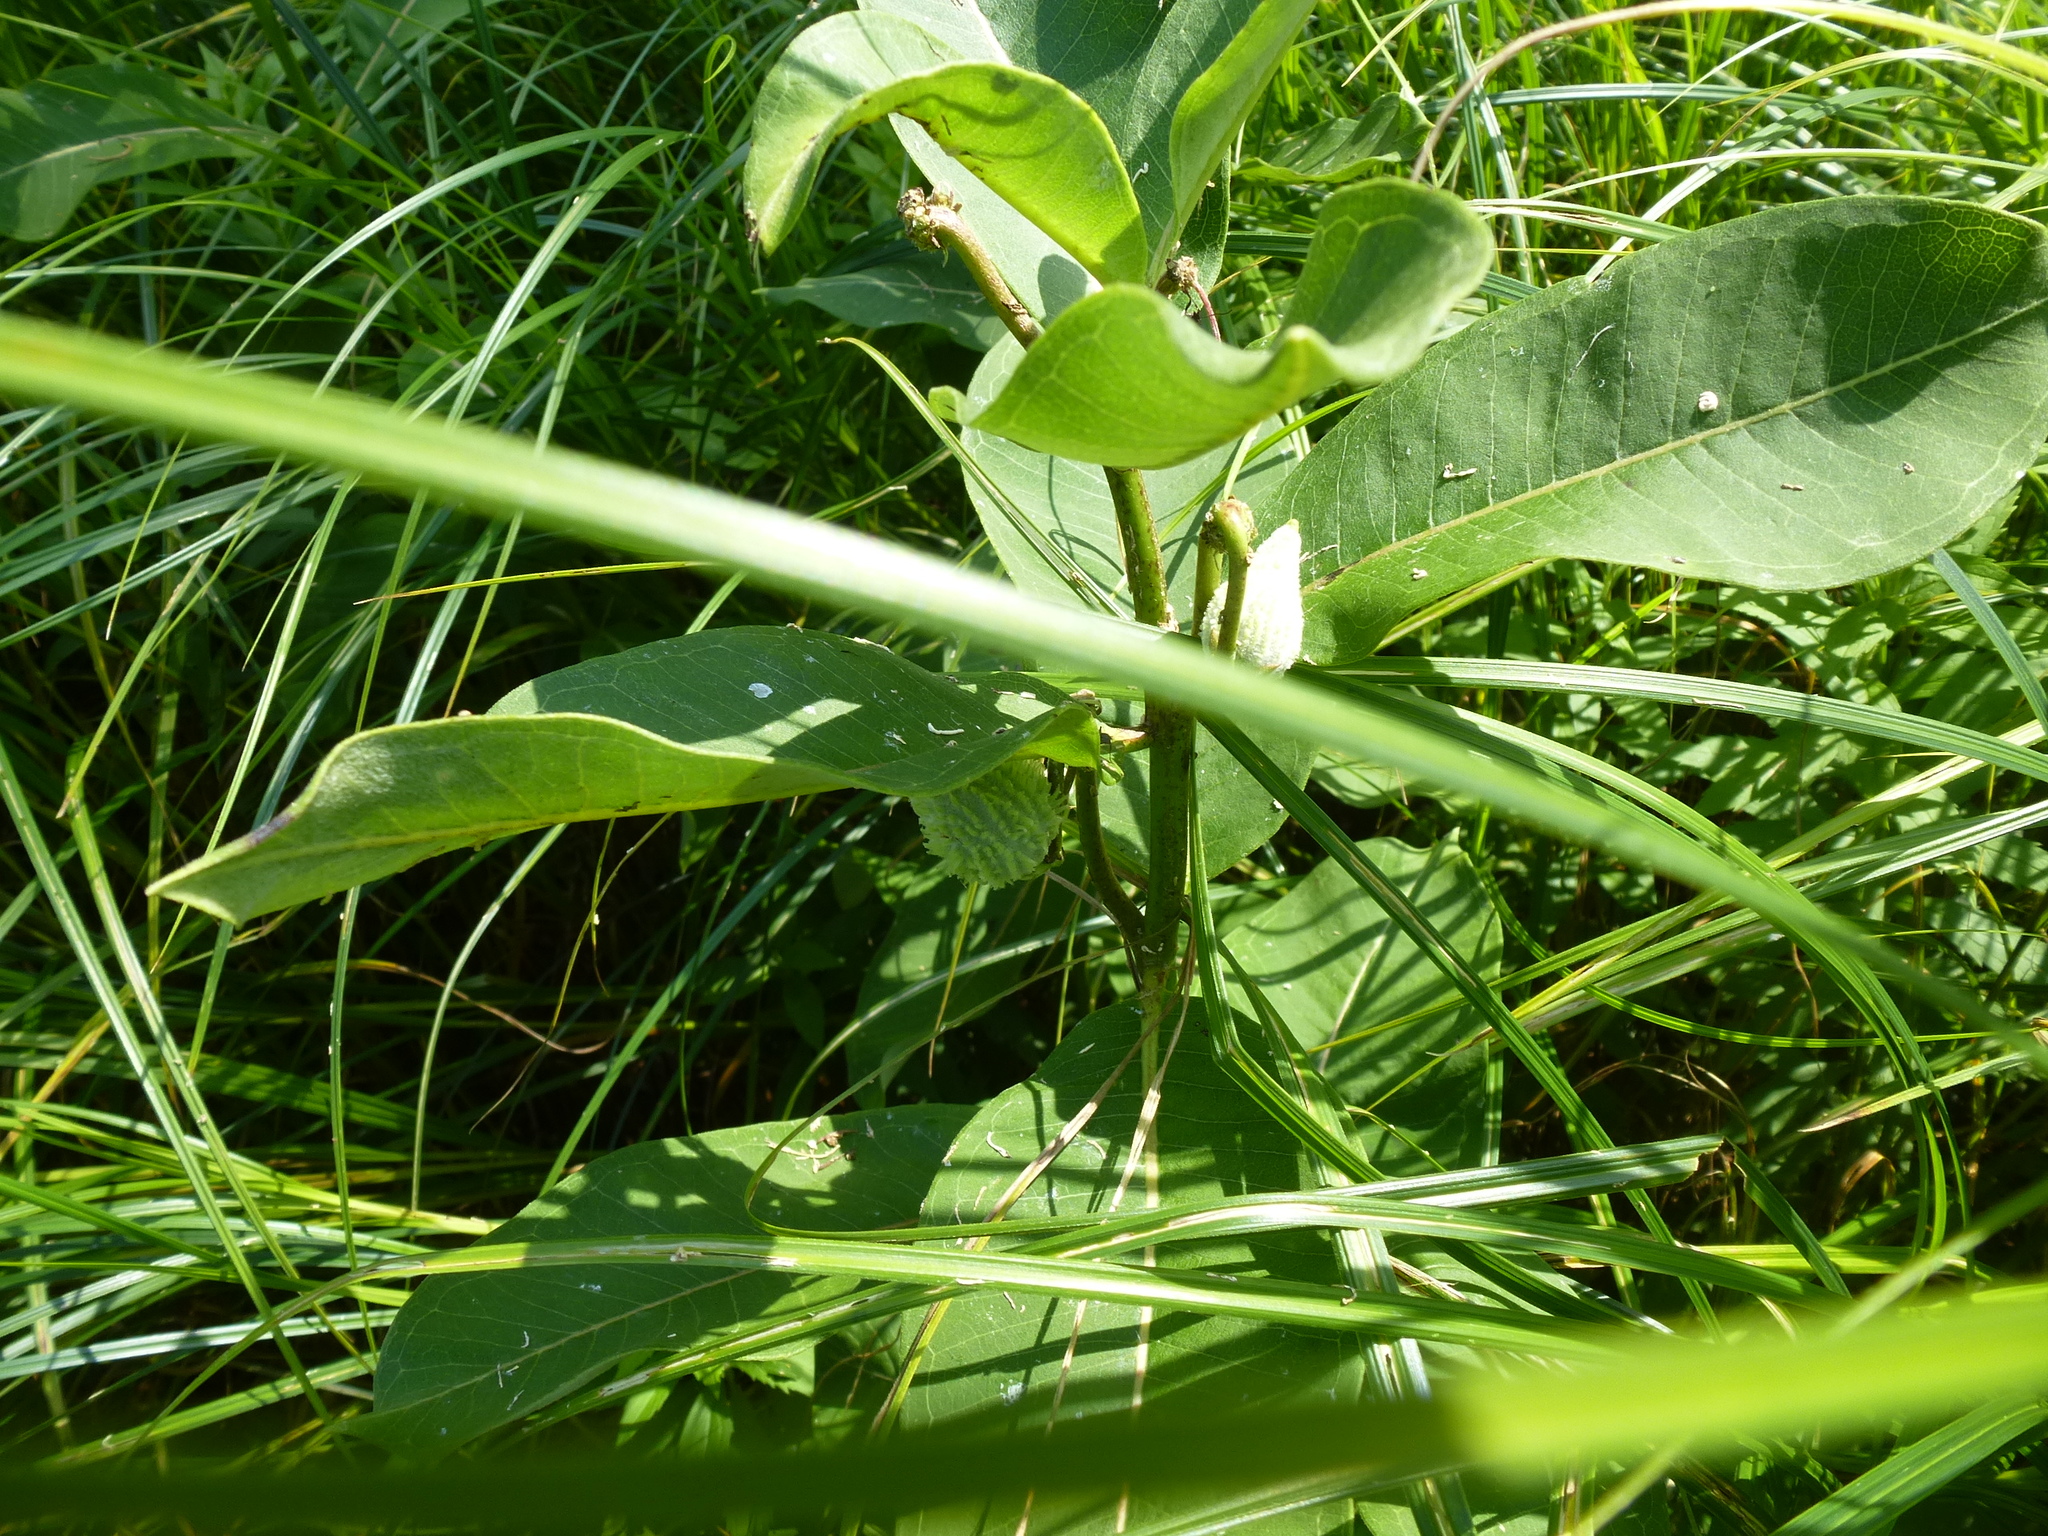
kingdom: Plantae
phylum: Tracheophyta
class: Magnoliopsida
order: Gentianales
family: Apocynaceae
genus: Asclepias
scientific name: Asclepias syriaca
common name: Common milkweed
